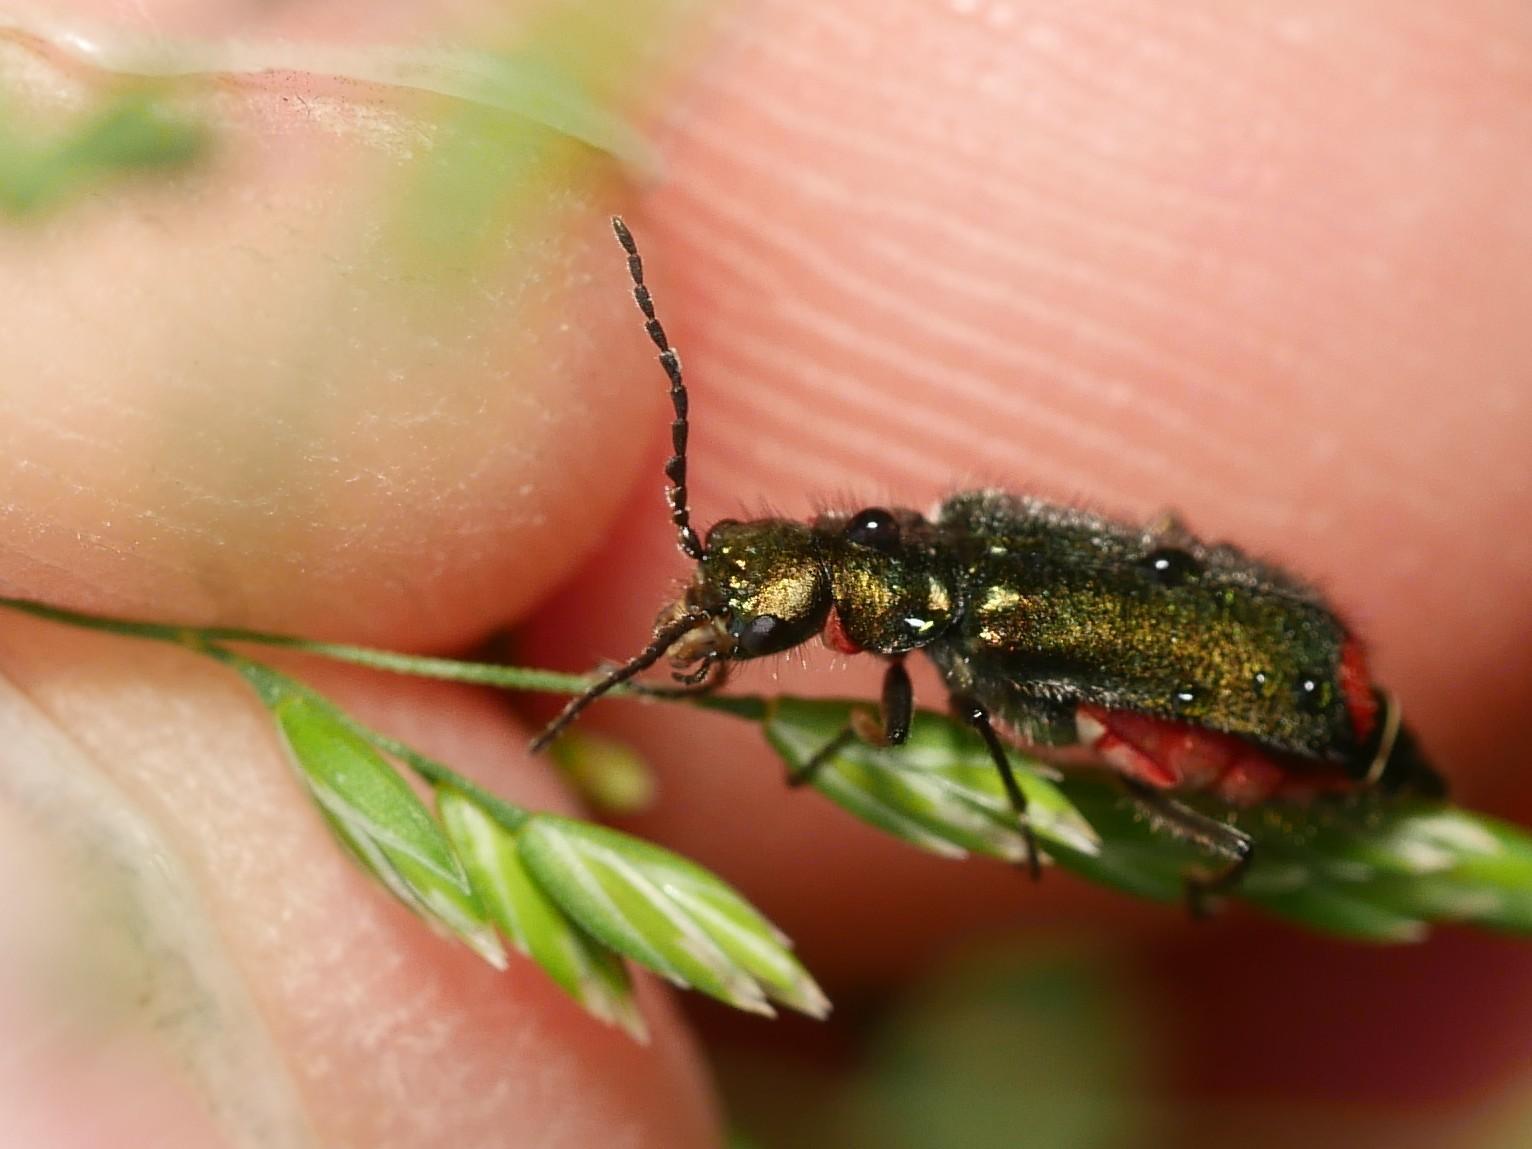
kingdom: Animalia
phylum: Arthropoda
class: Insecta
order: Coleoptera
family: Melyridae
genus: Malachius
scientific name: Malachius bipustulatus
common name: Malachite beetle
